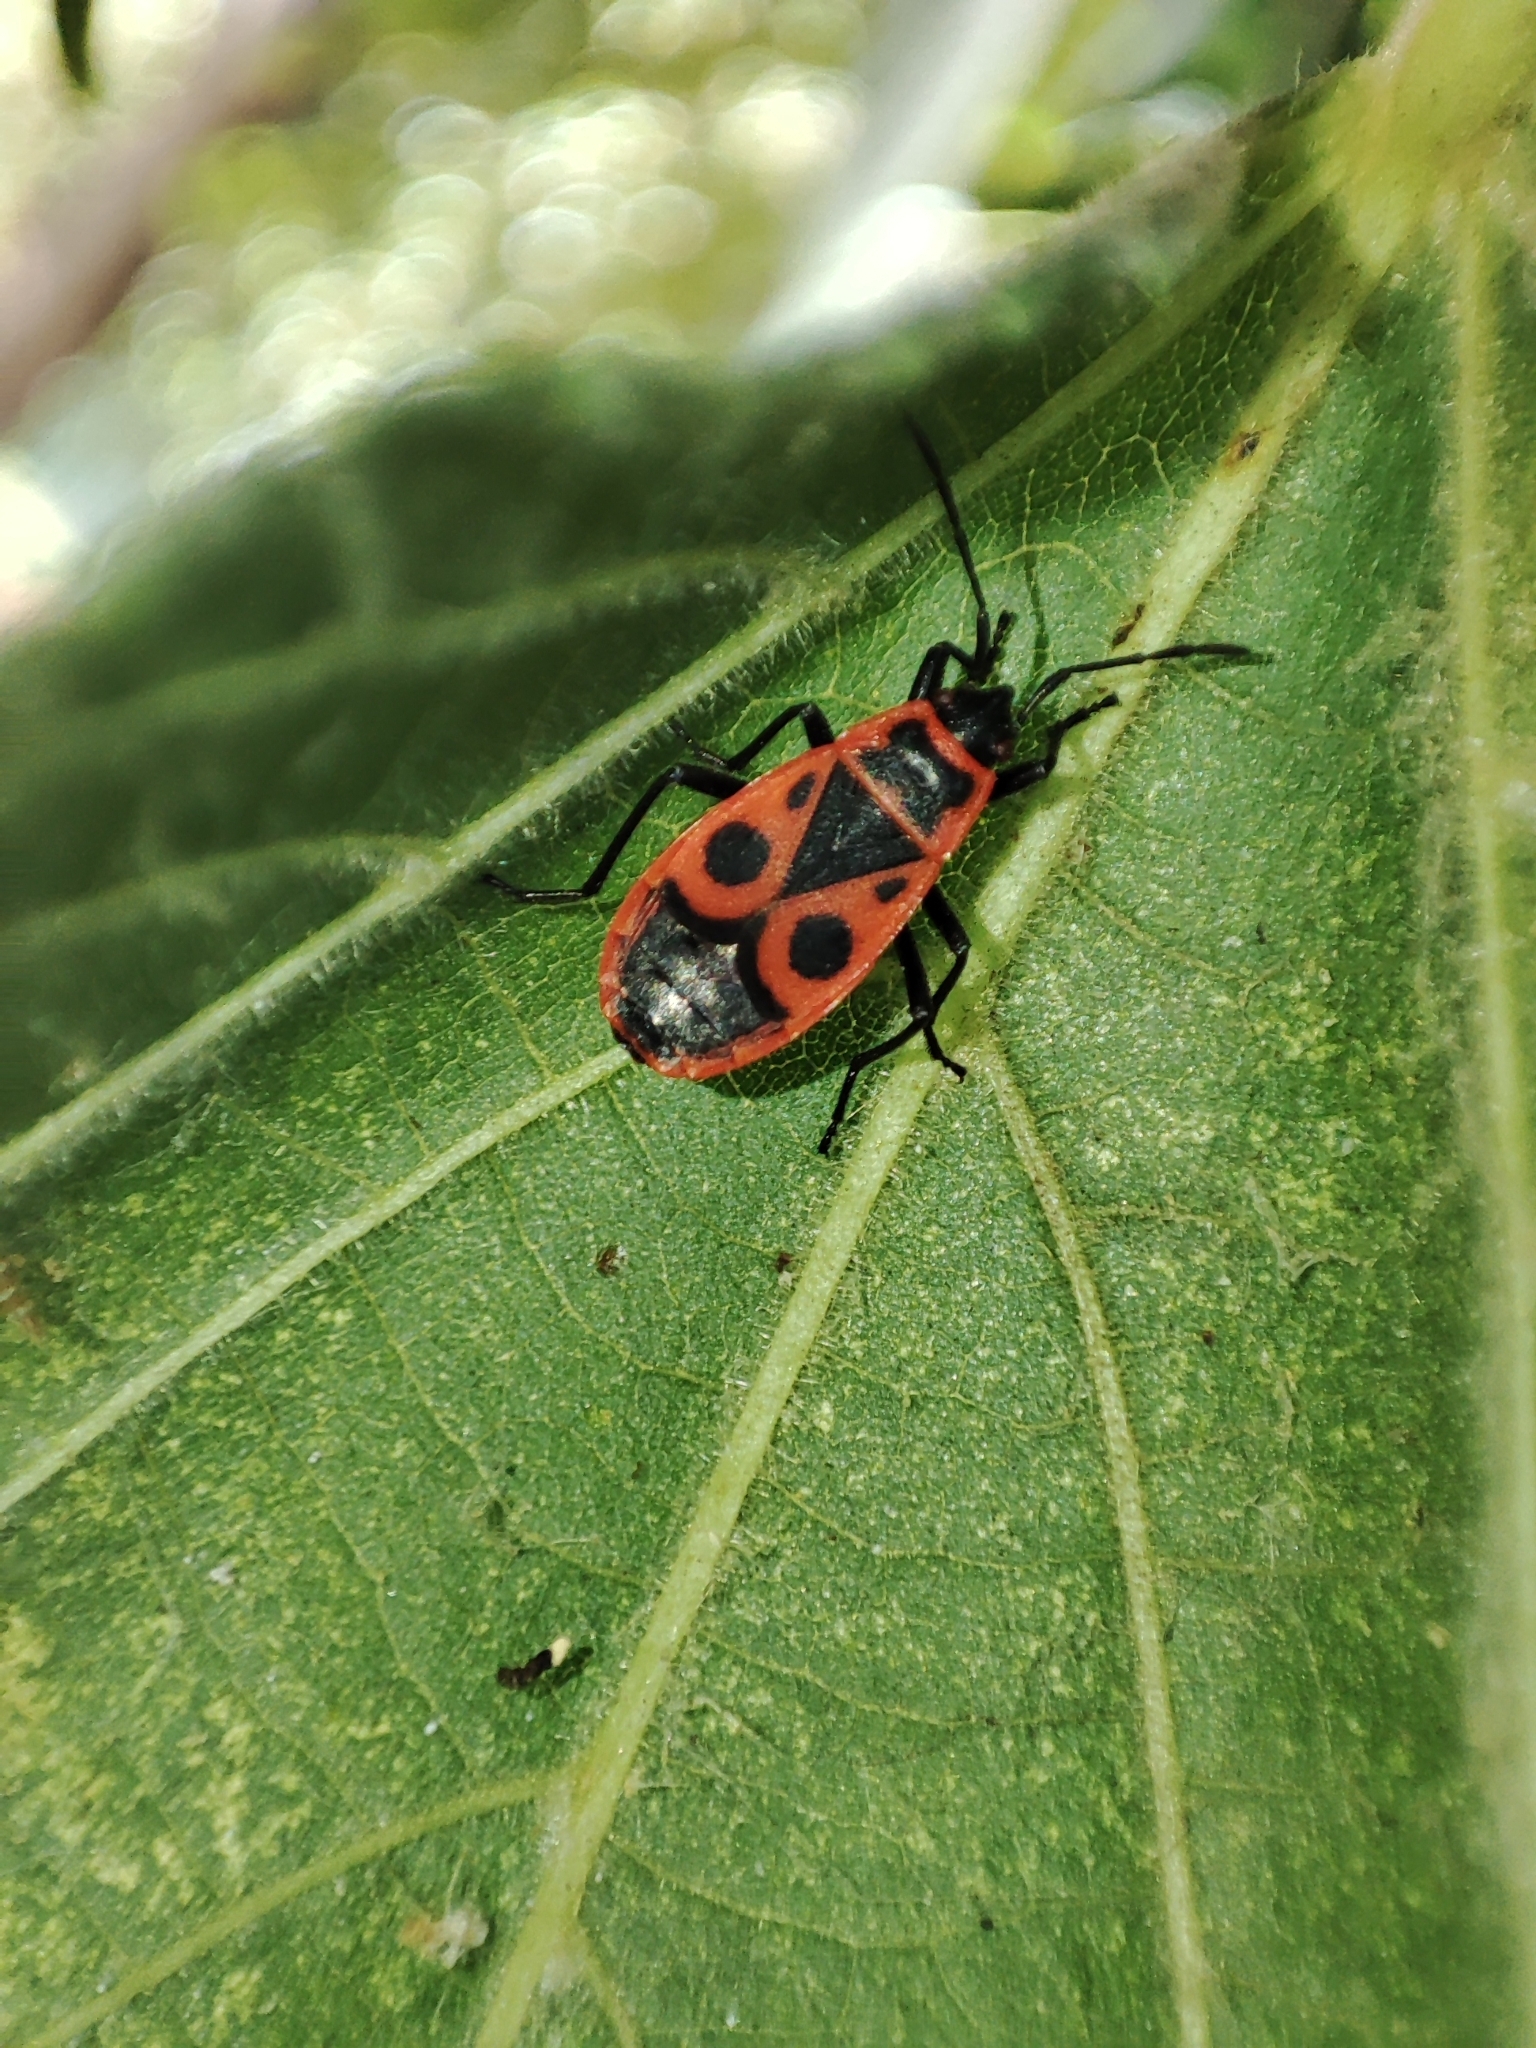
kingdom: Animalia
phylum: Arthropoda
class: Insecta
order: Hemiptera
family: Pyrrhocoridae
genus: Pyrrhocoris
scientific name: Pyrrhocoris apterus
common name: Firebug
